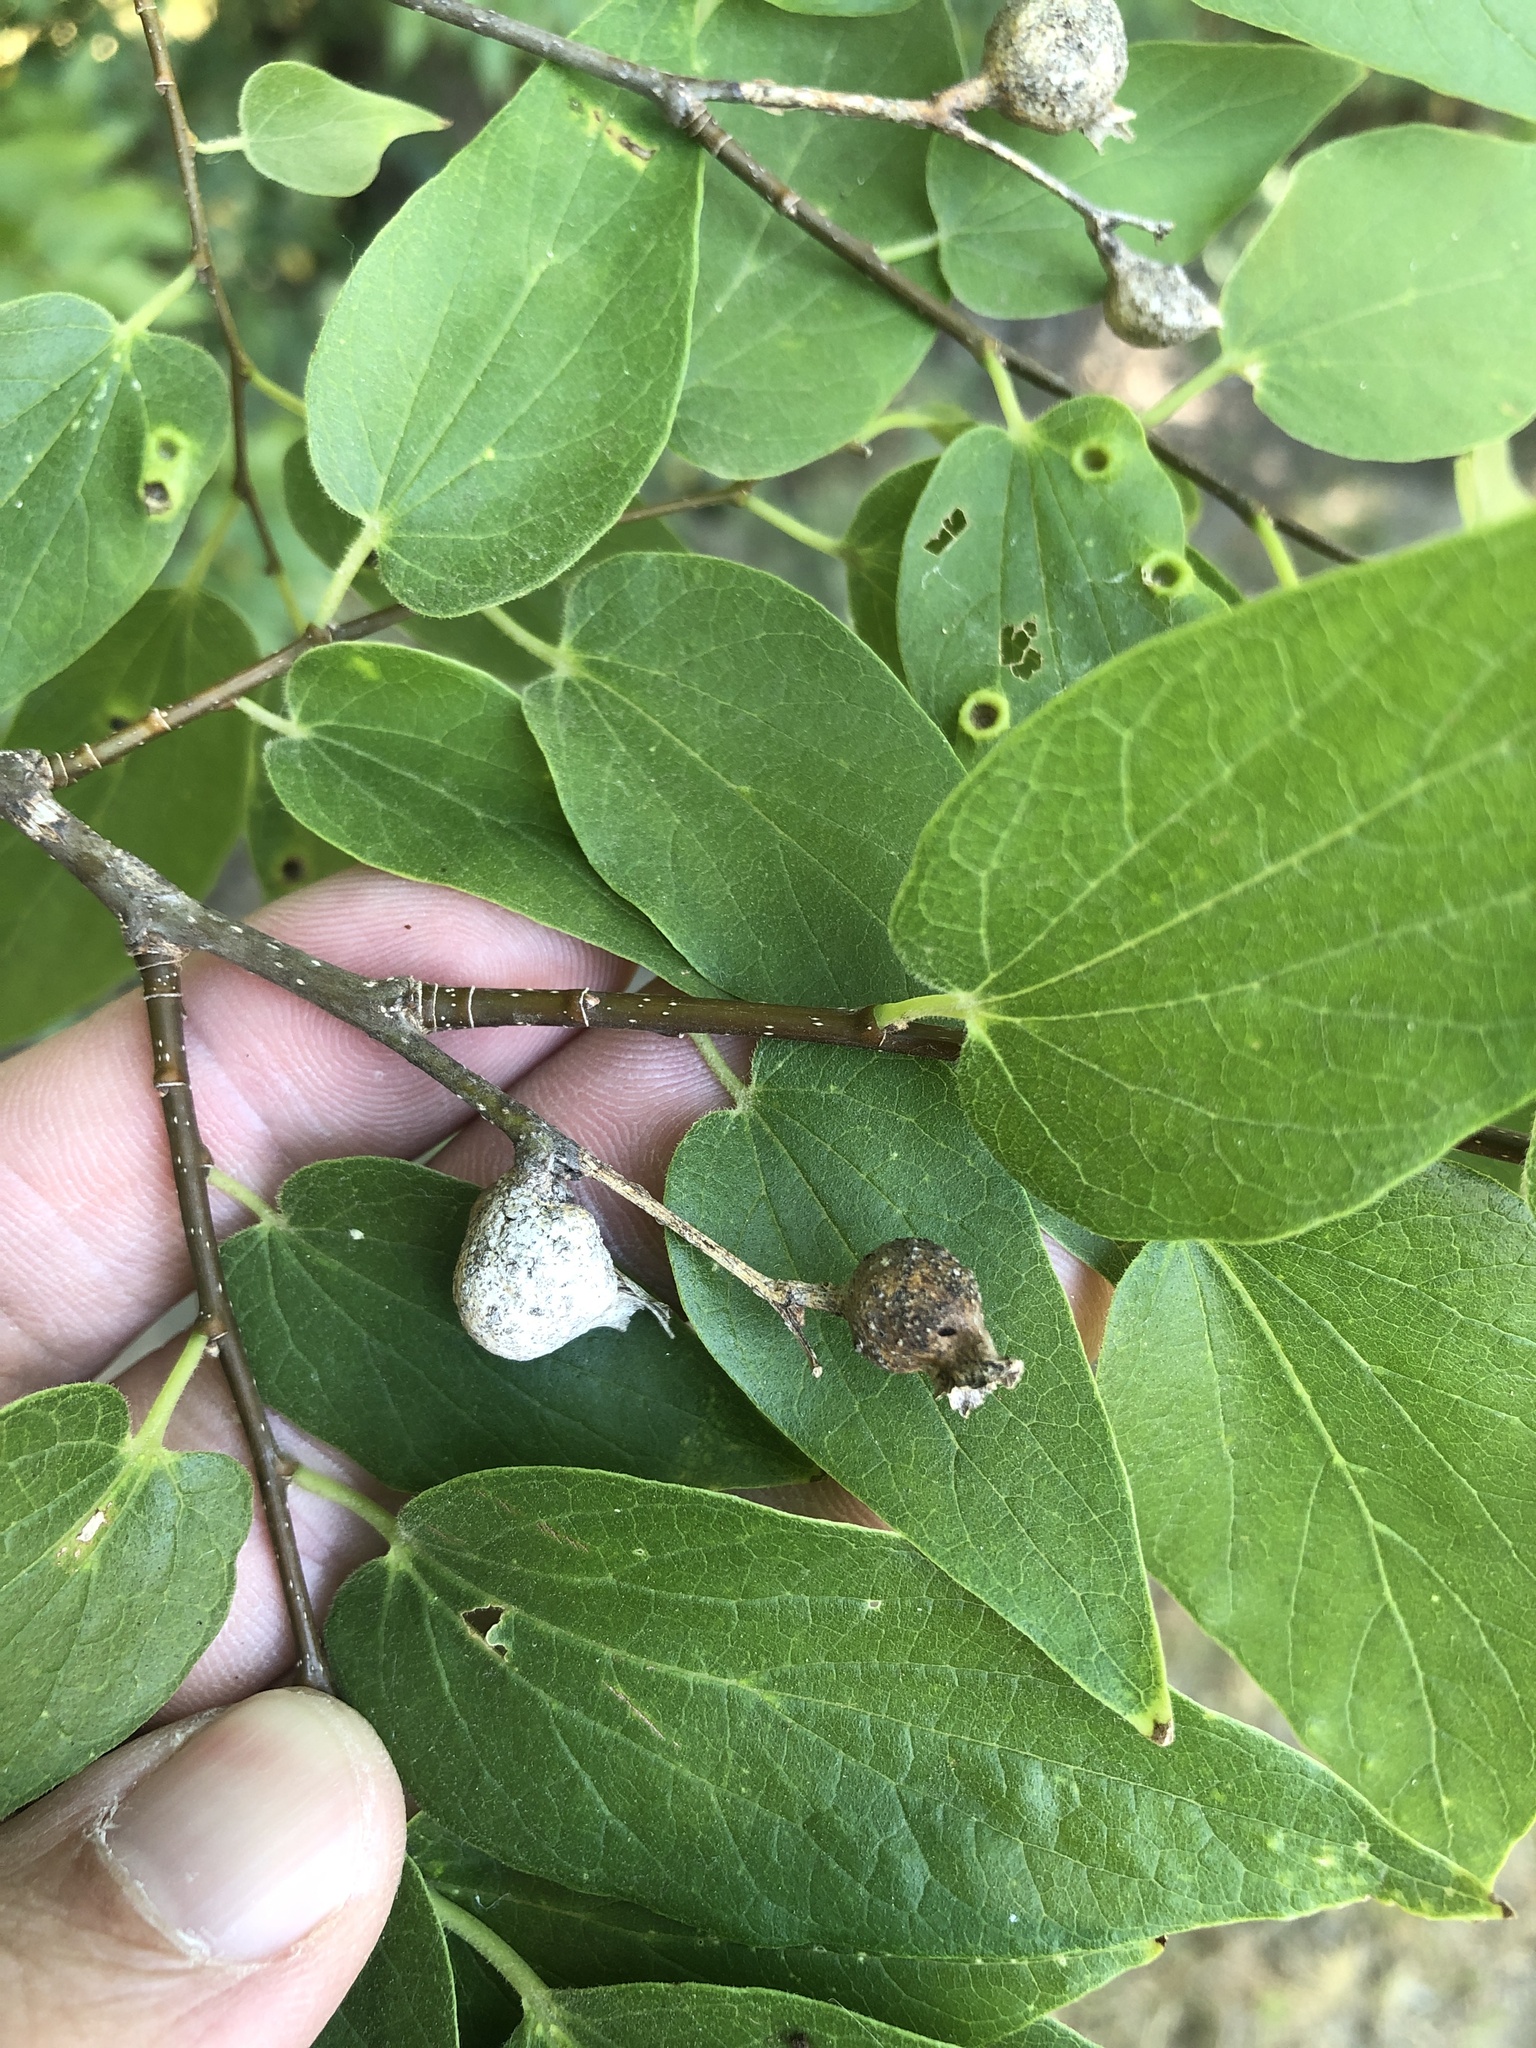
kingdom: Animalia
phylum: Arthropoda
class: Insecta
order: Hemiptera
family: Aphalaridae
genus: Pachypsylla
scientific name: Pachypsylla venusta
